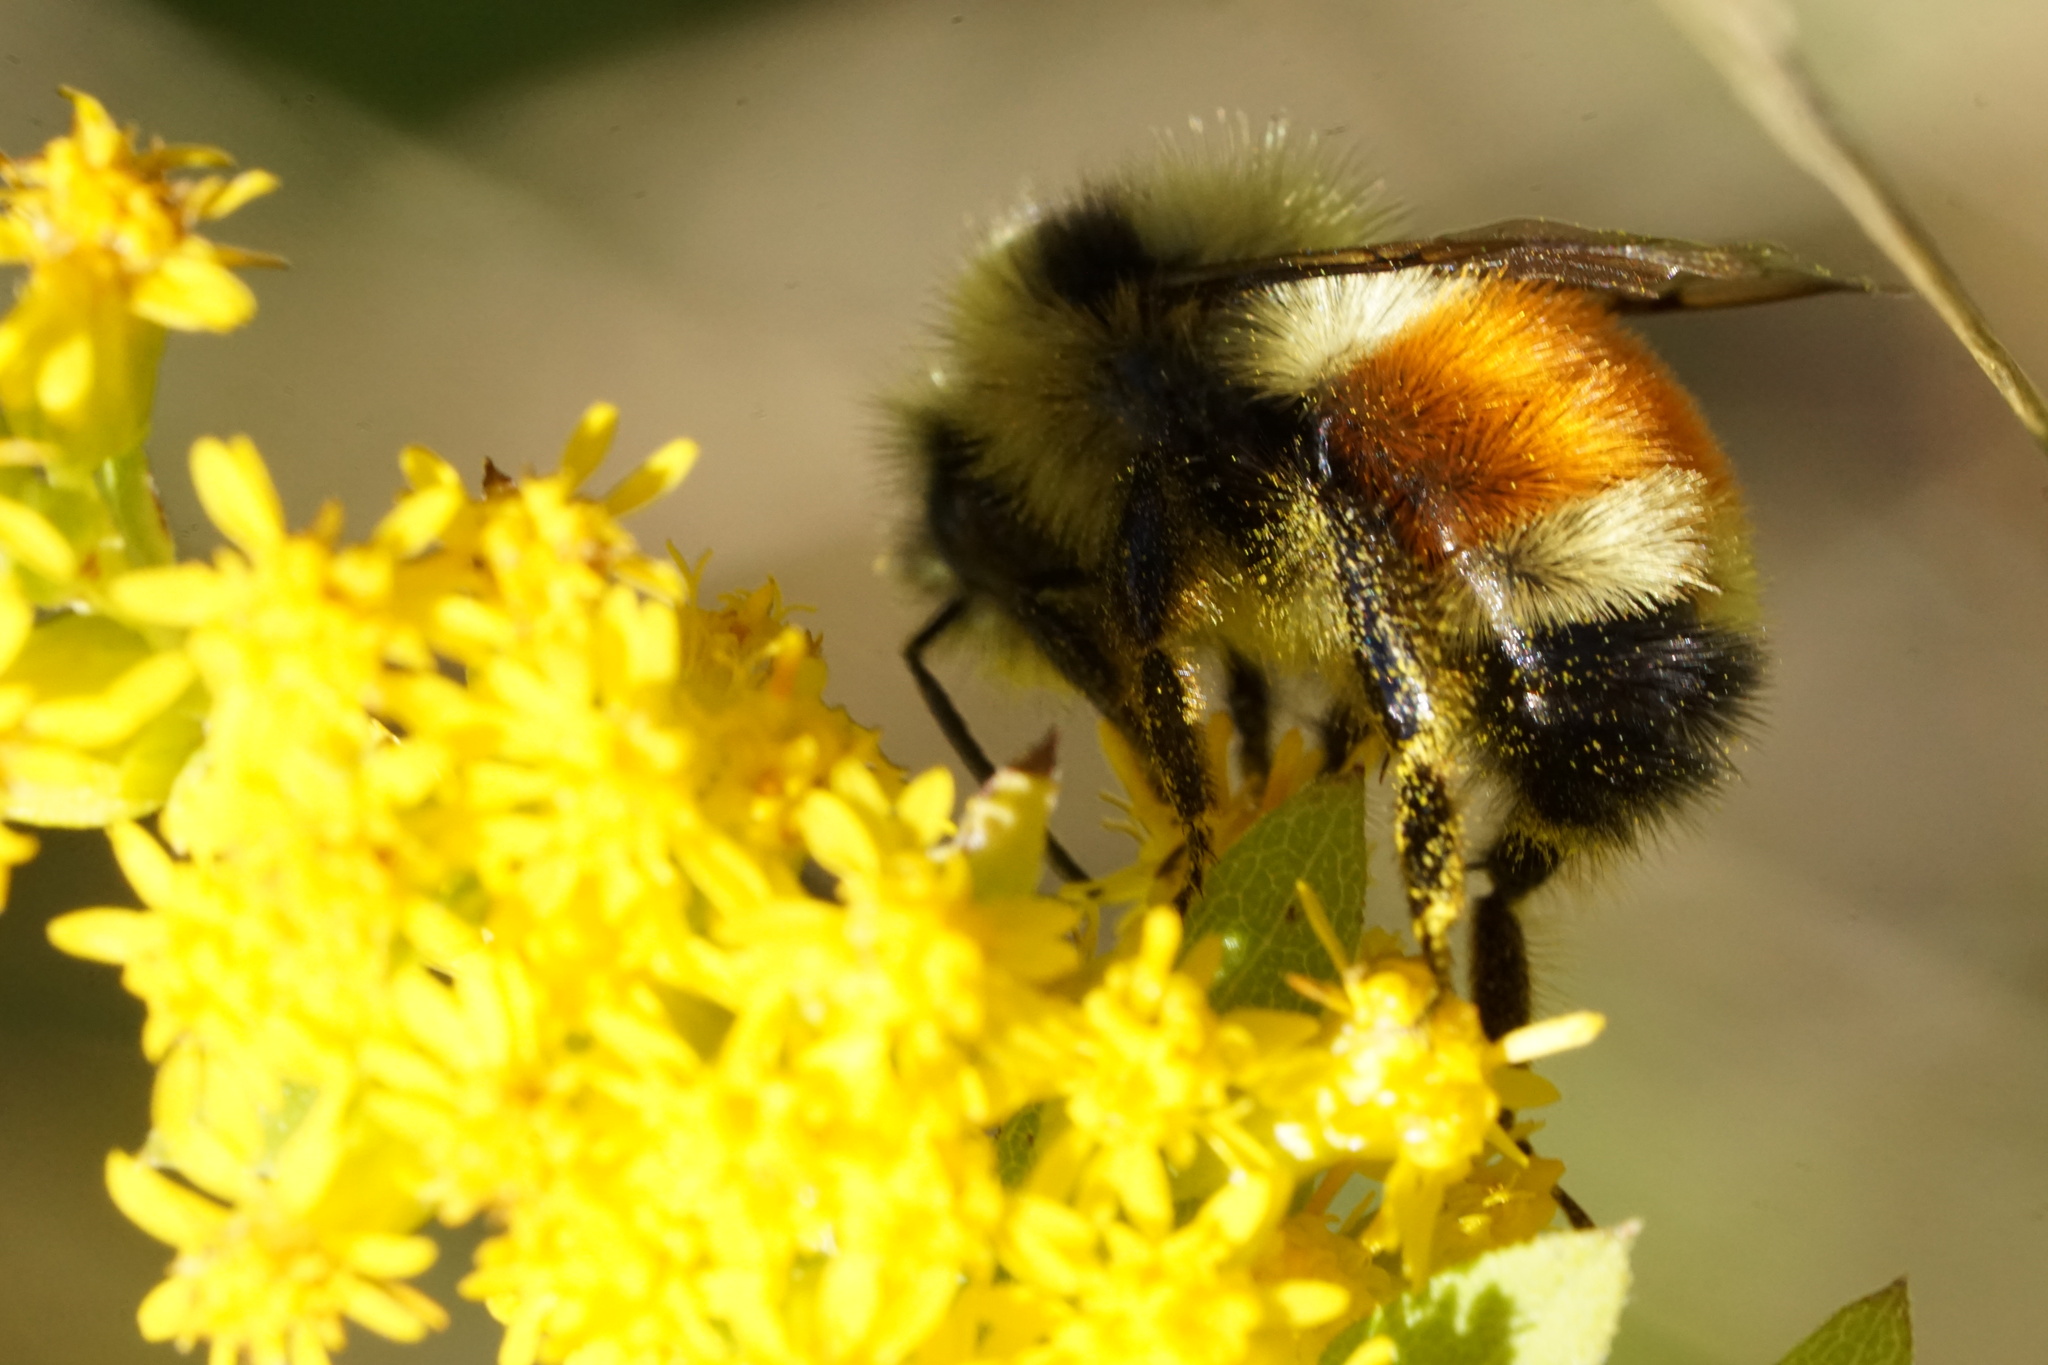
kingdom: Animalia
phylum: Arthropoda
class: Insecta
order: Hymenoptera
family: Apidae
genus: Bombus
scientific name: Bombus ternarius
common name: Tri-colored bumble bee
